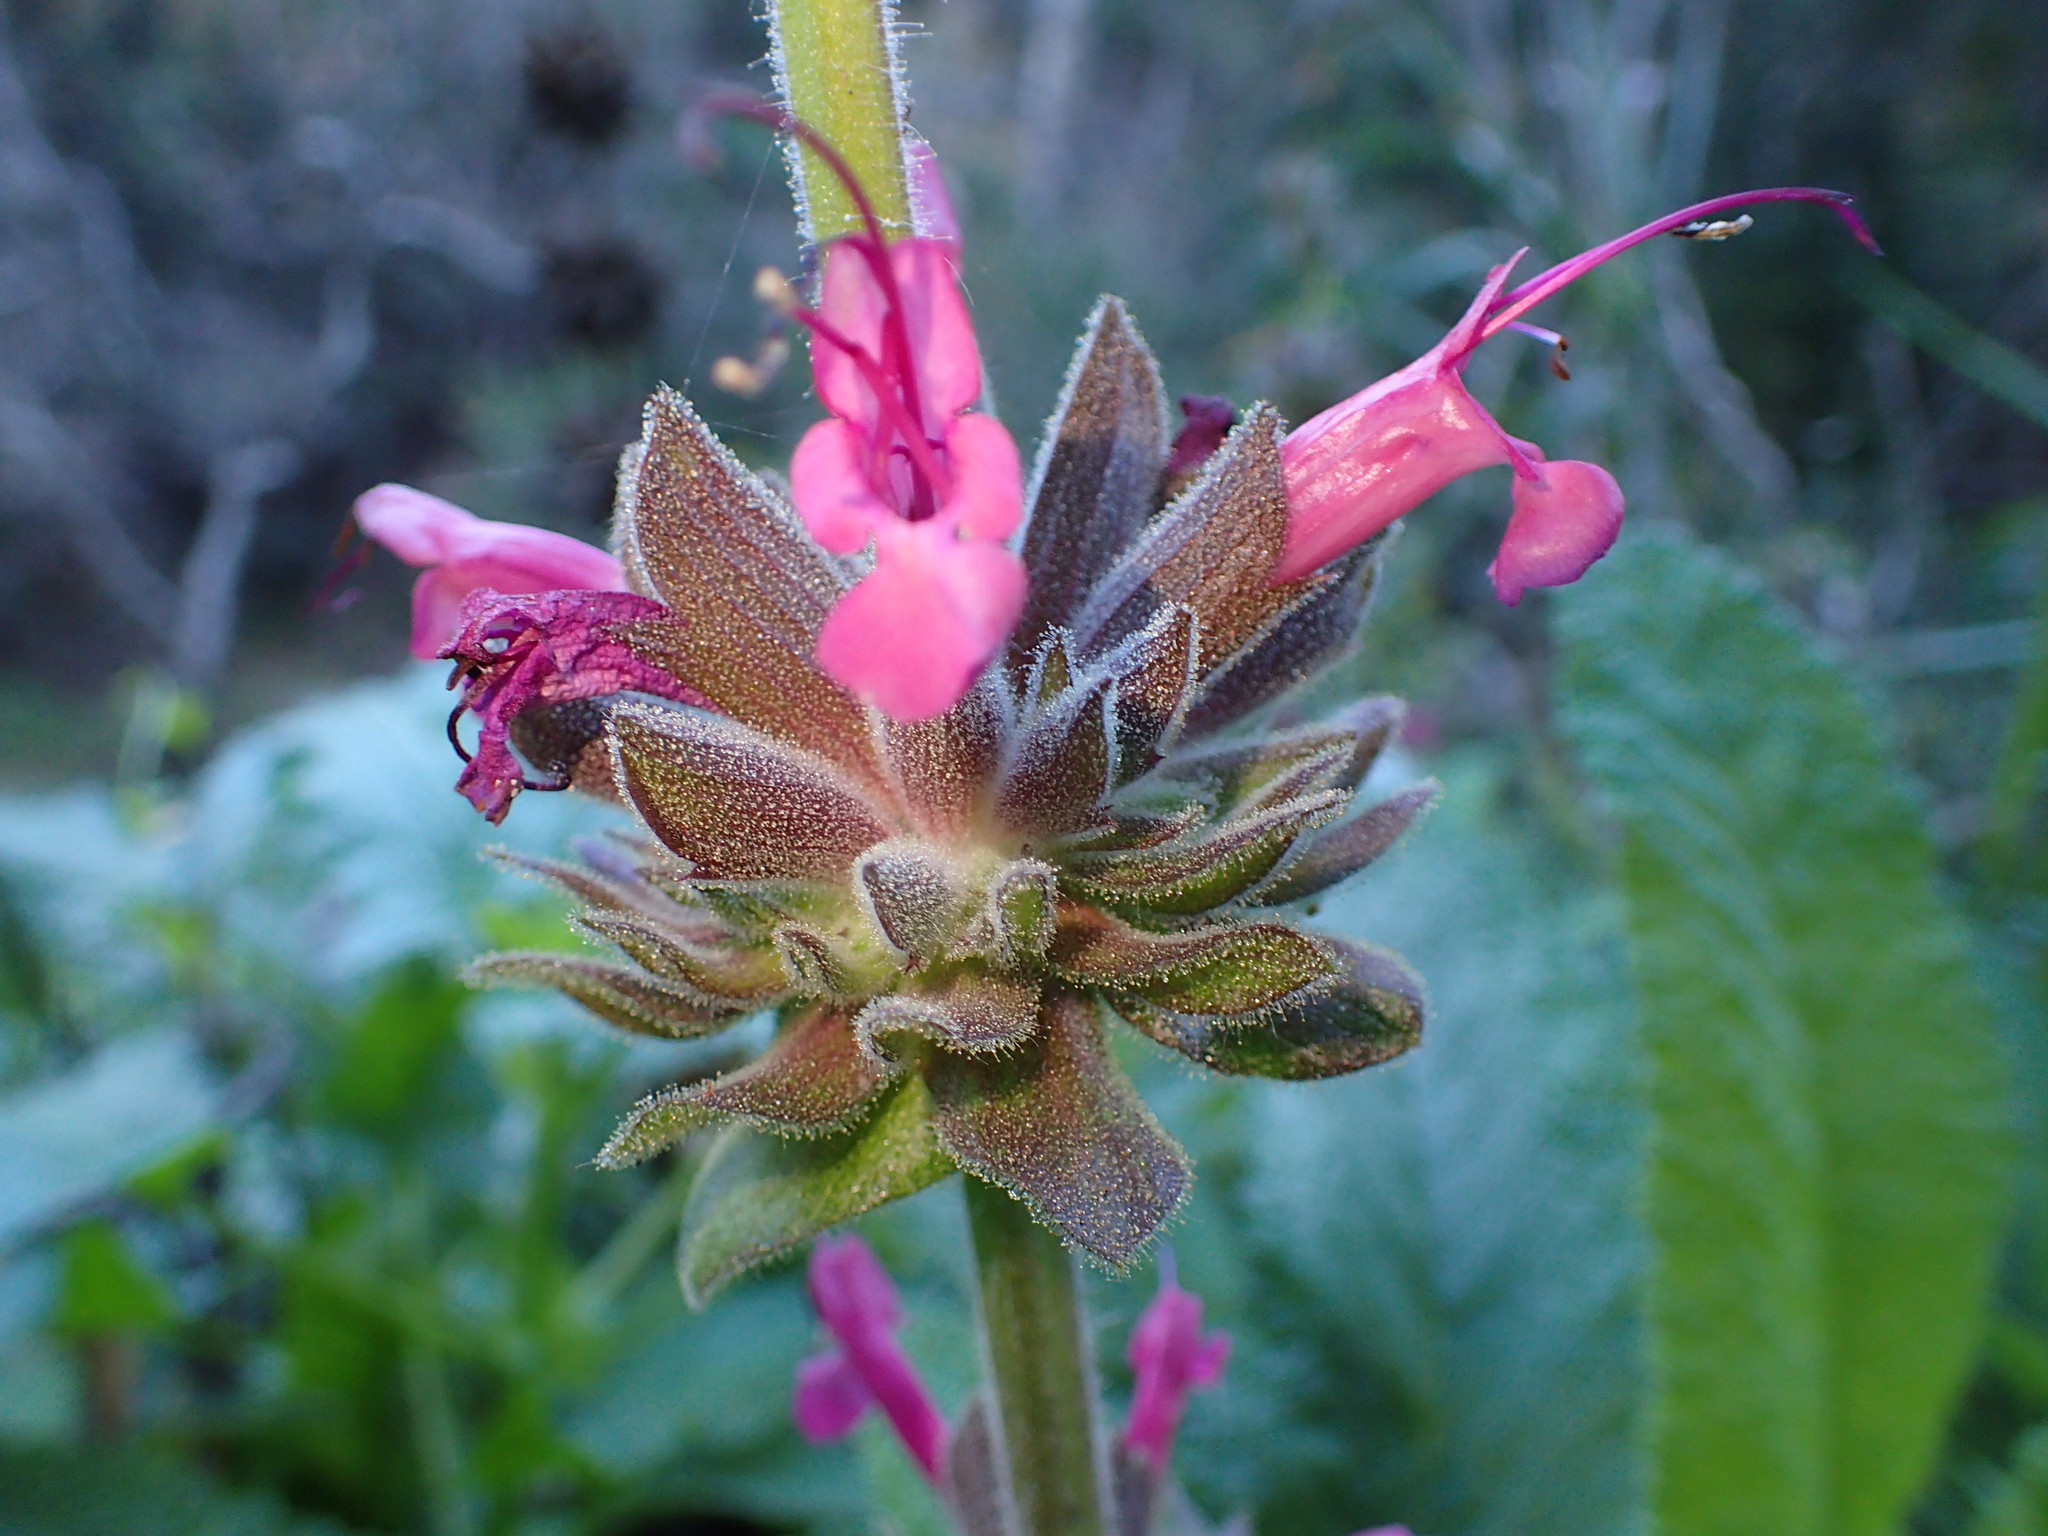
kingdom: Plantae
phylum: Tracheophyta
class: Magnoliopsida
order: Lamiales
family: Lamiaceae
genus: Salvia
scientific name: Salvia spathacea
